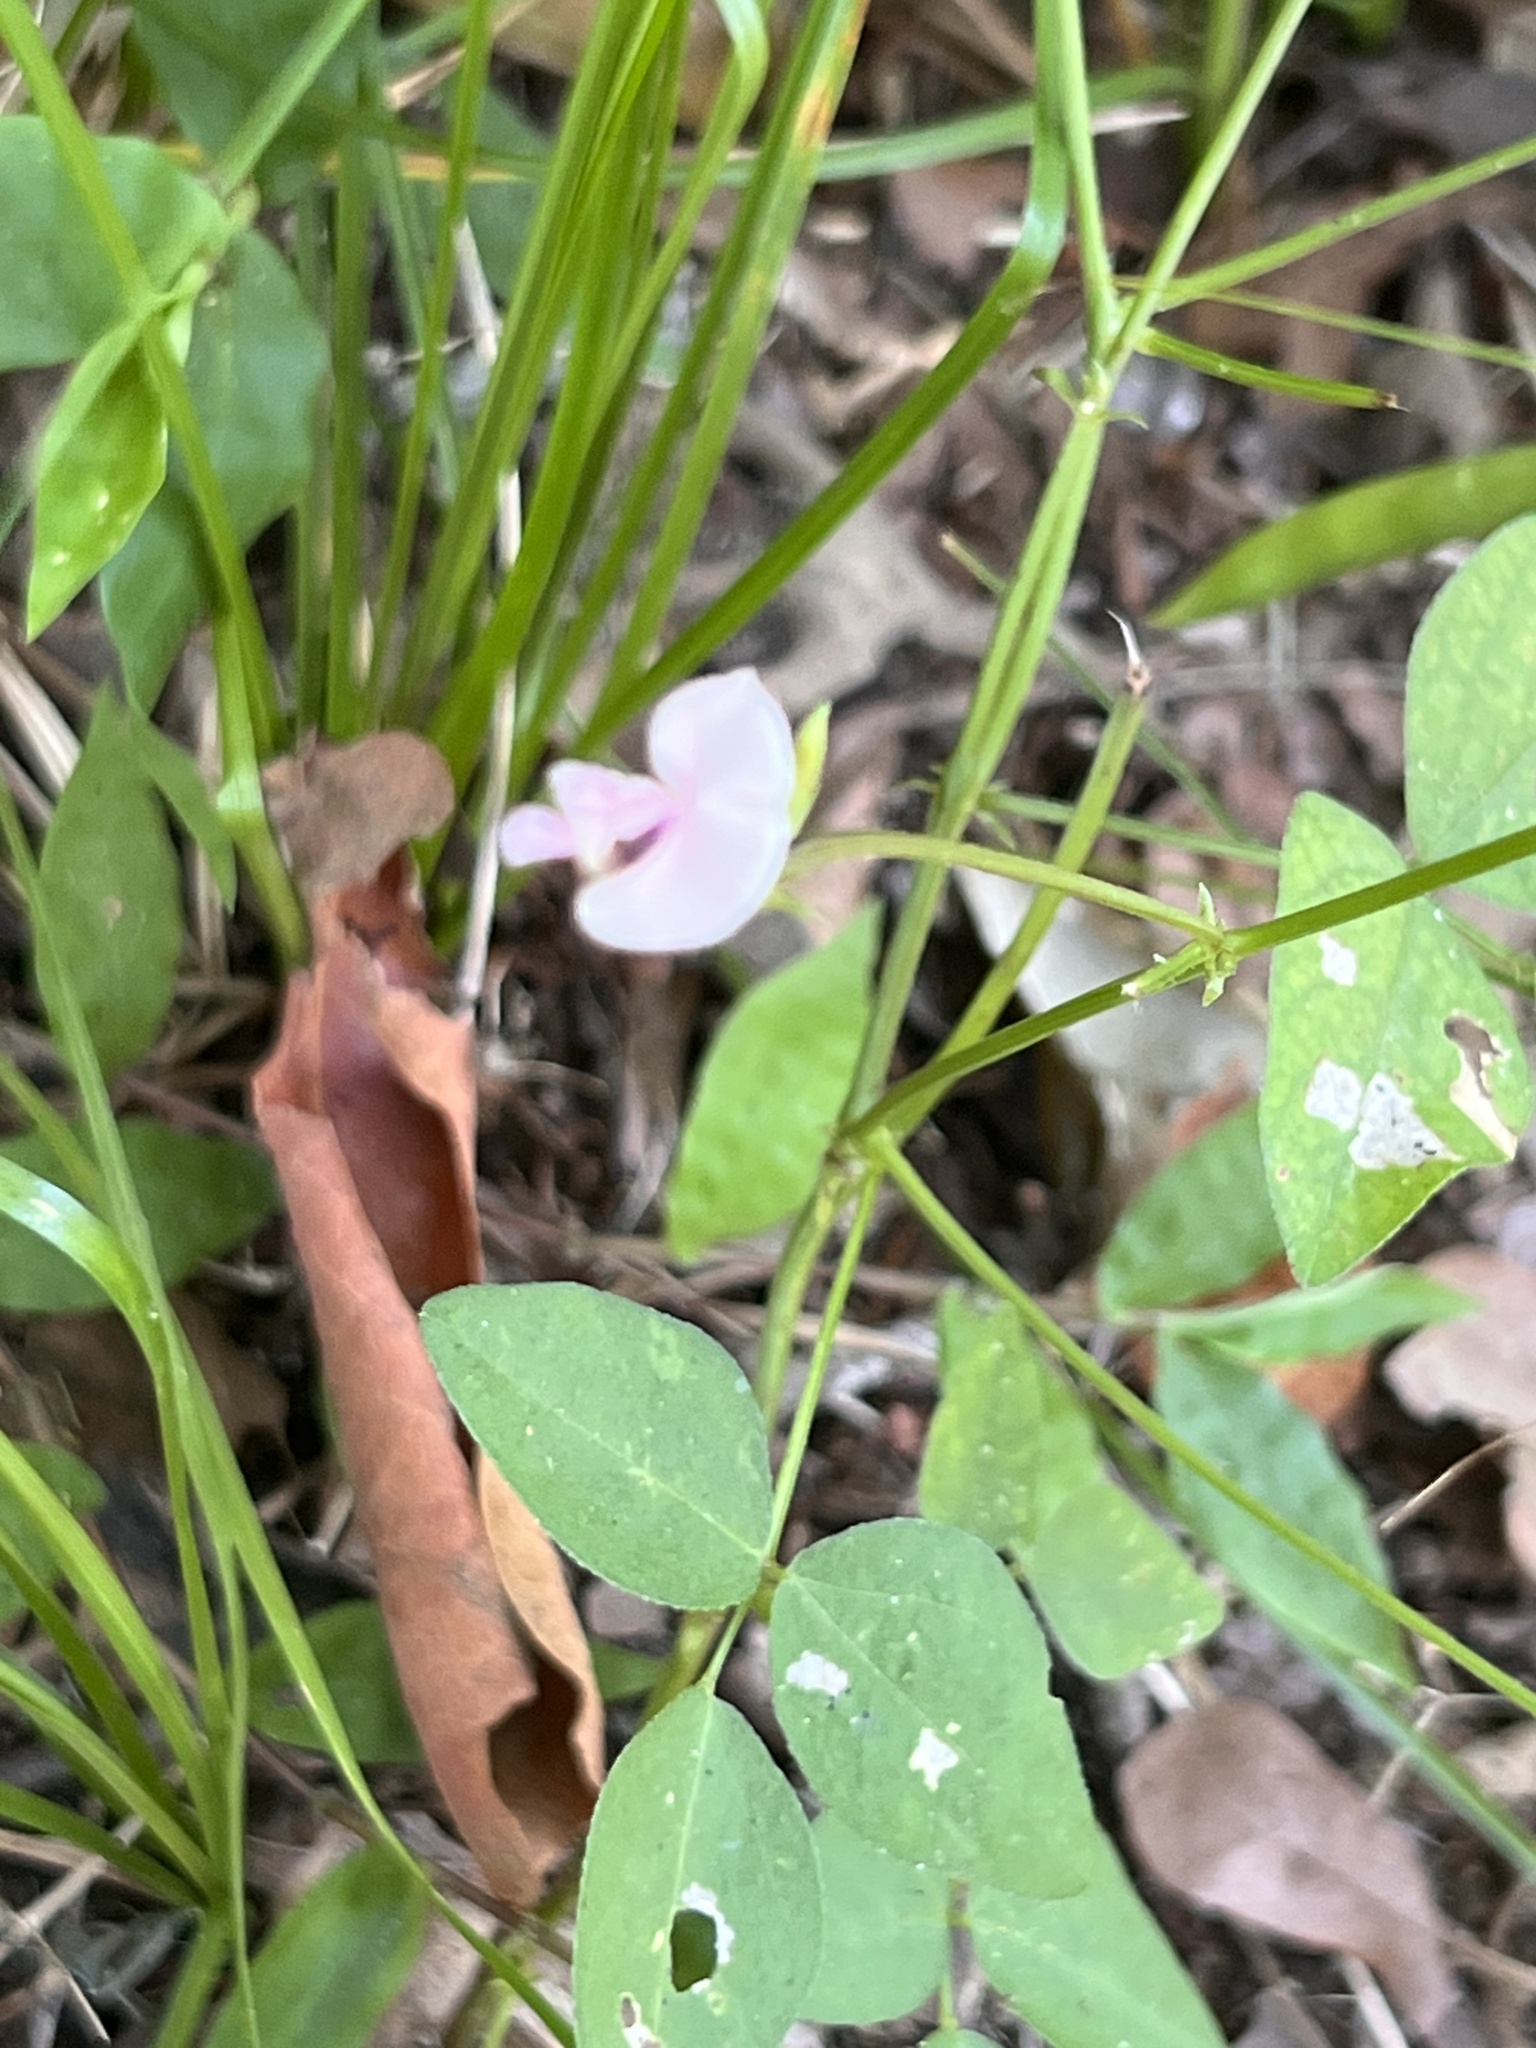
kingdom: Plantae
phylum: Tracheophyta
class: Magnoliopsida
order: Fabales
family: Fabaceae
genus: Strophostyles
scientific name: Strophostyles helvola
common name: Trailing wild bean
